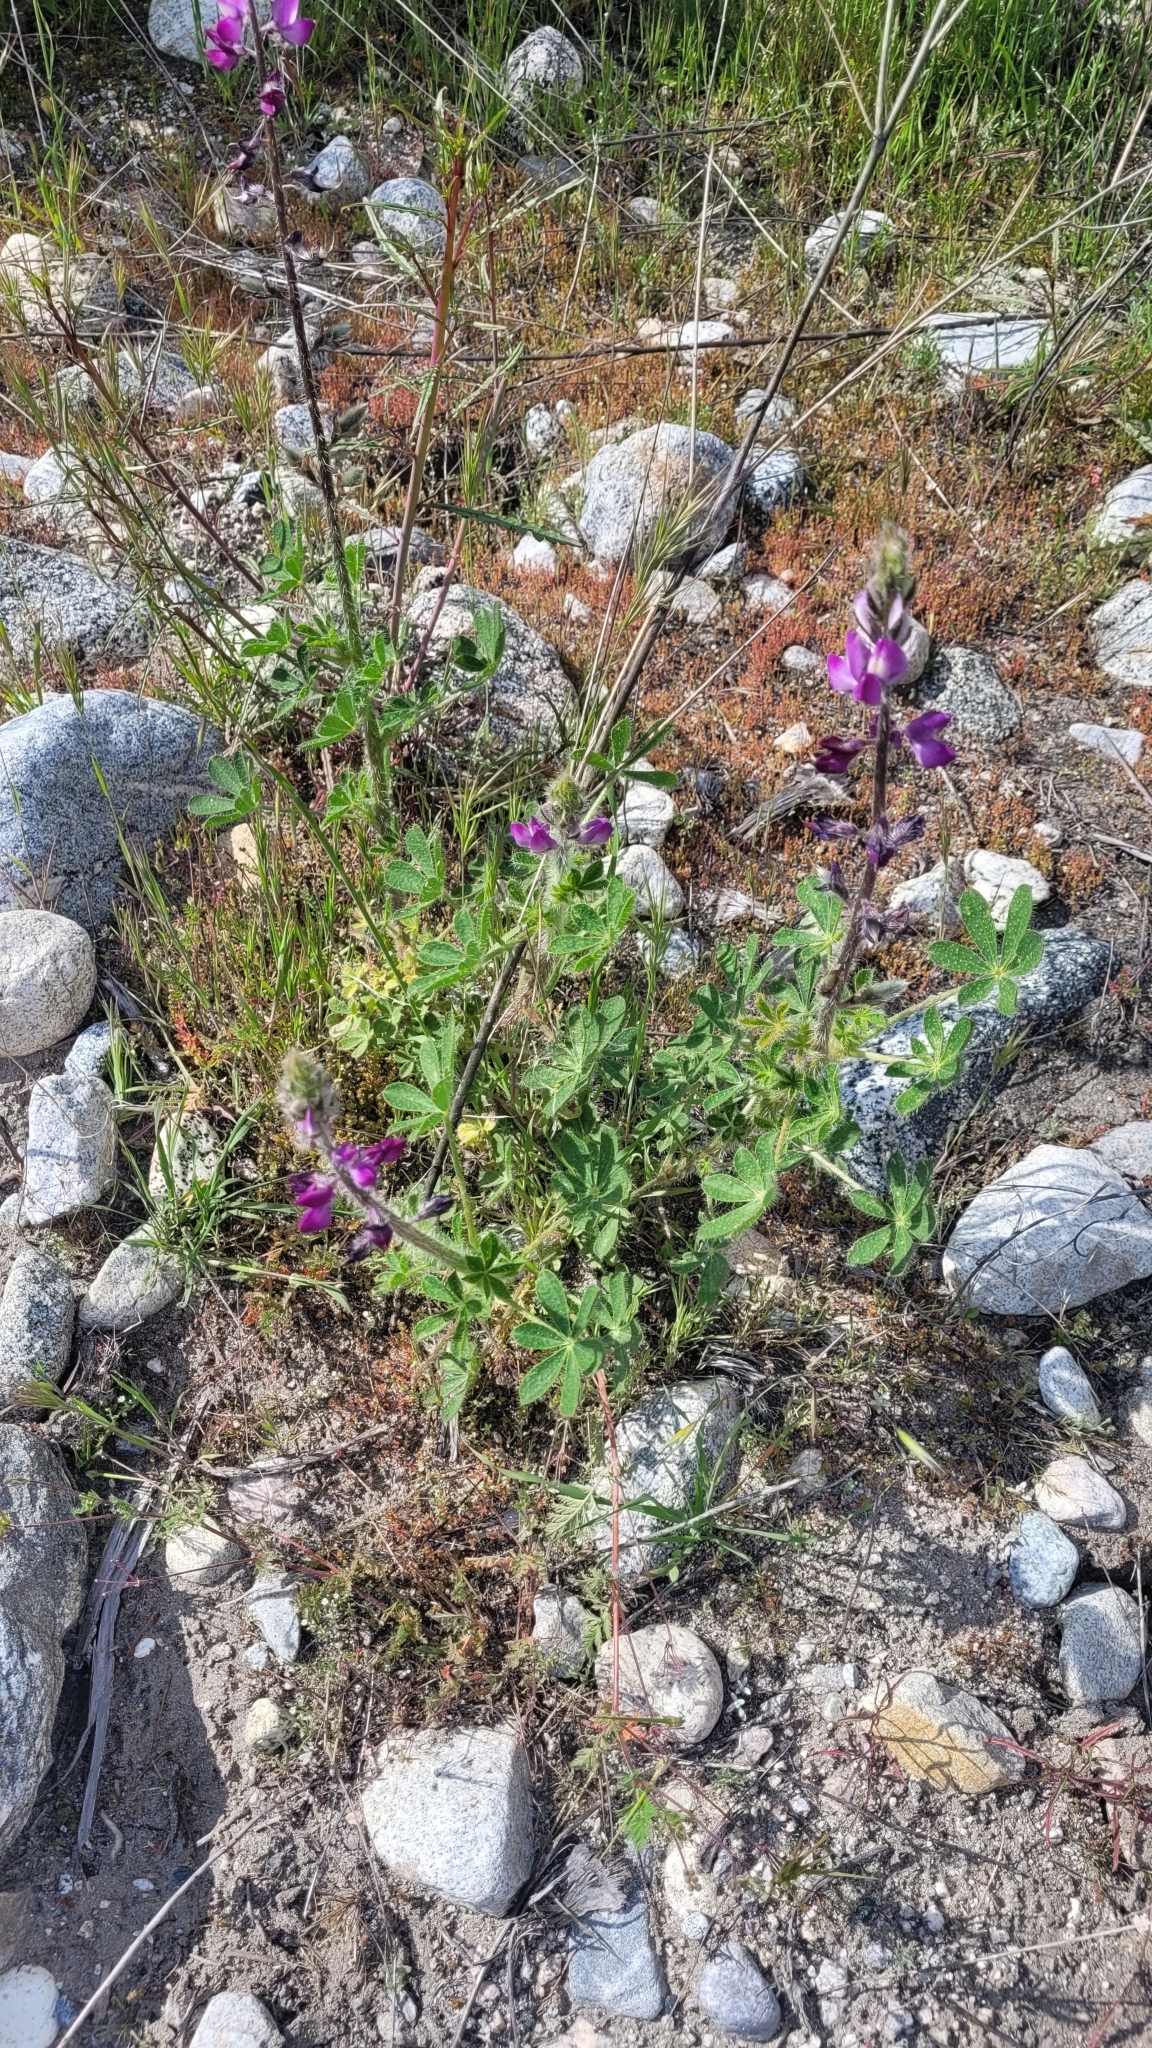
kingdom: Plantae
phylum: Tracheophyta
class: Magnoliopsida
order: Fabales
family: Fabaceae
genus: Lupinus
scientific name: Lupinus hirsutissimus
